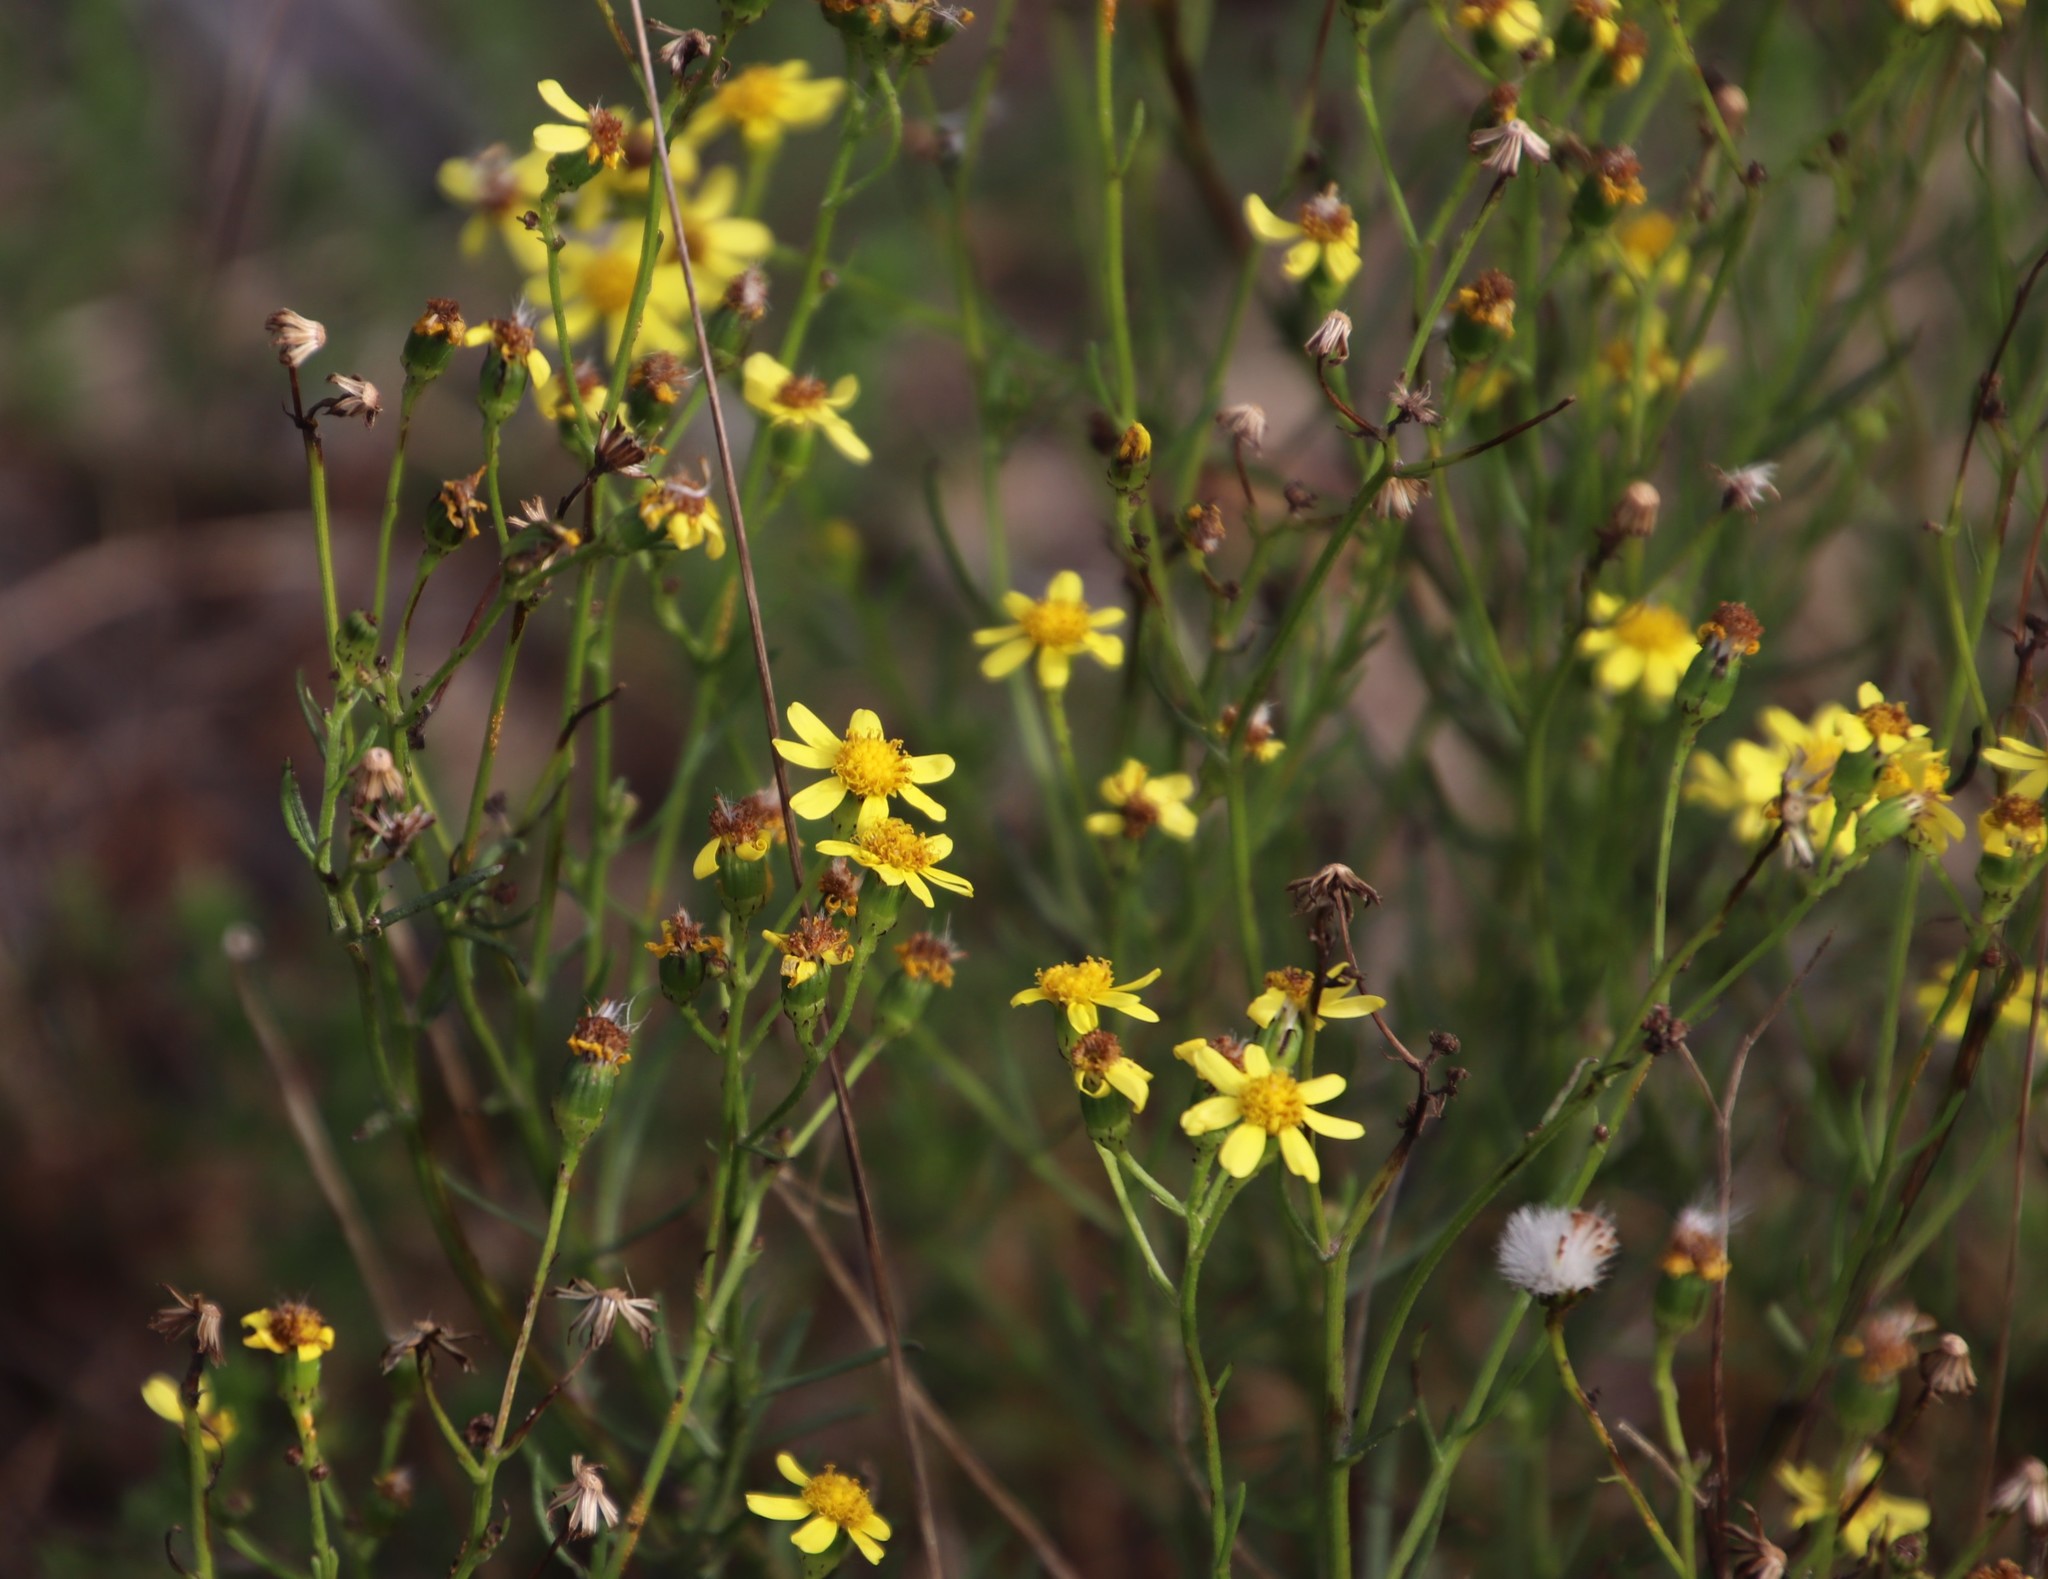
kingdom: Plantae
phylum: Tracheophyta
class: Magnoliopsida
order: Asterales
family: Asteraceae
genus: Senecio
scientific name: Senecio burchellii
